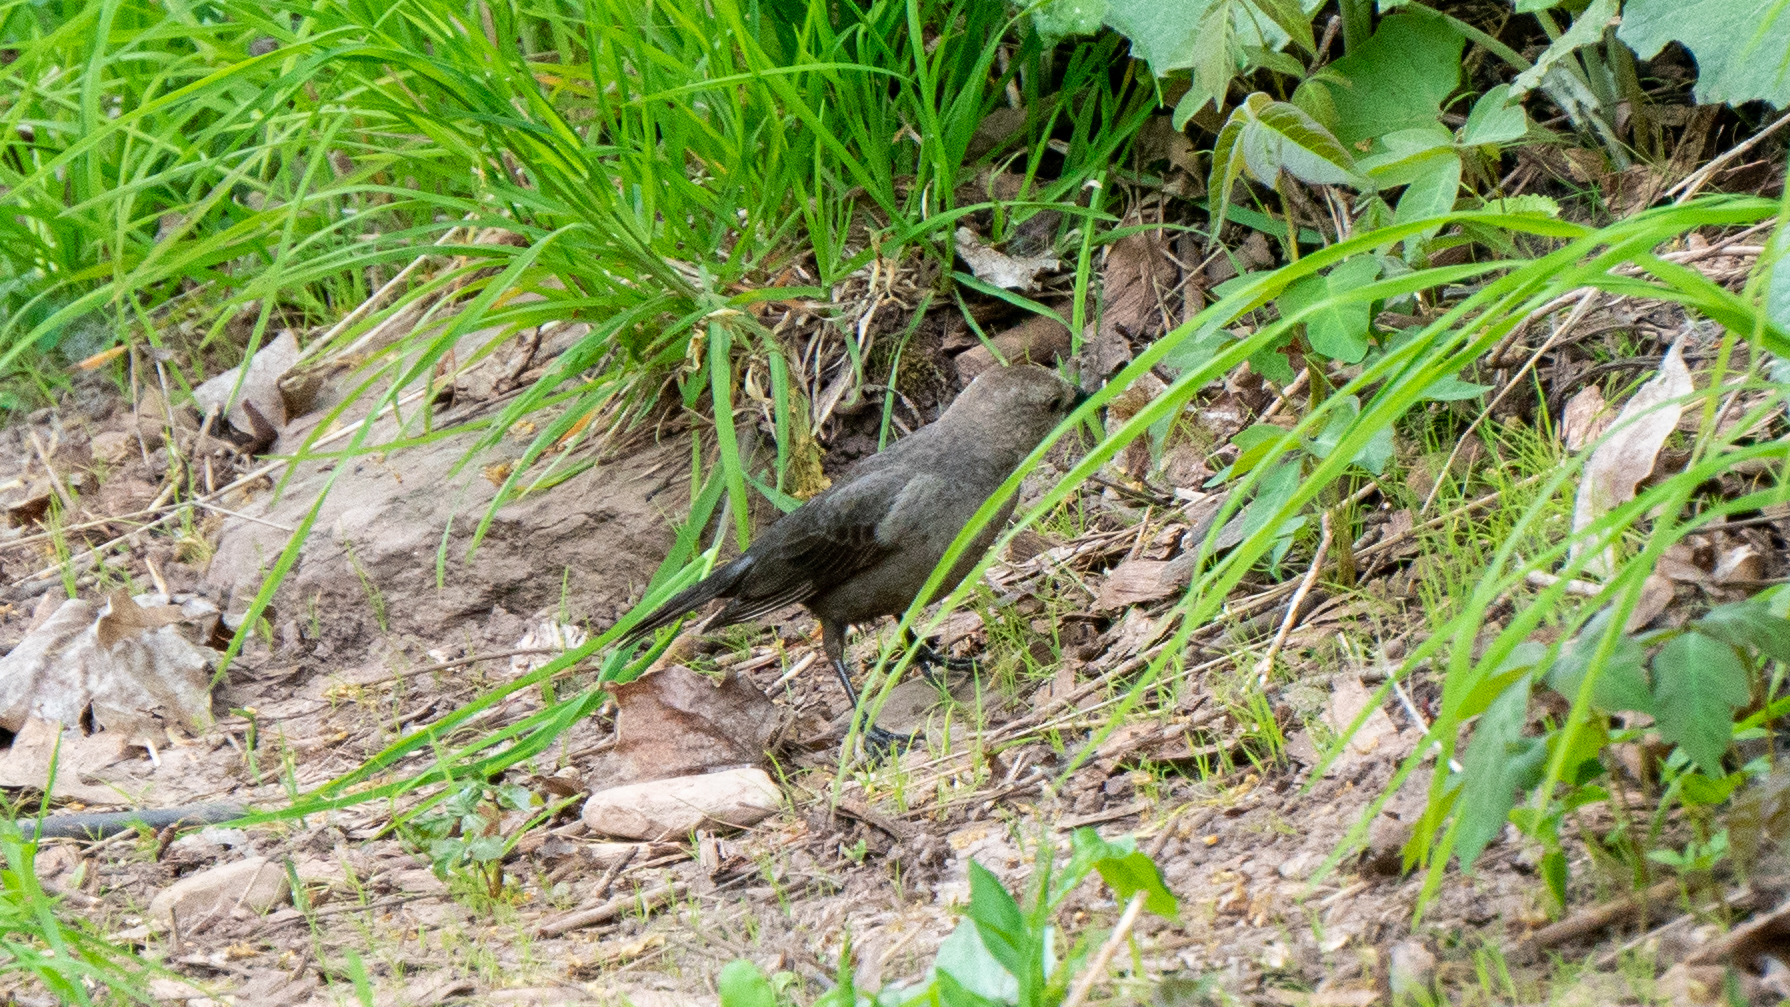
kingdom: Animalia
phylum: Chordata
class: Aves
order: Passeriformes
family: Icteridae
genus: Molothrus
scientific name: Molothrus ater
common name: Brown-headed cowbird
